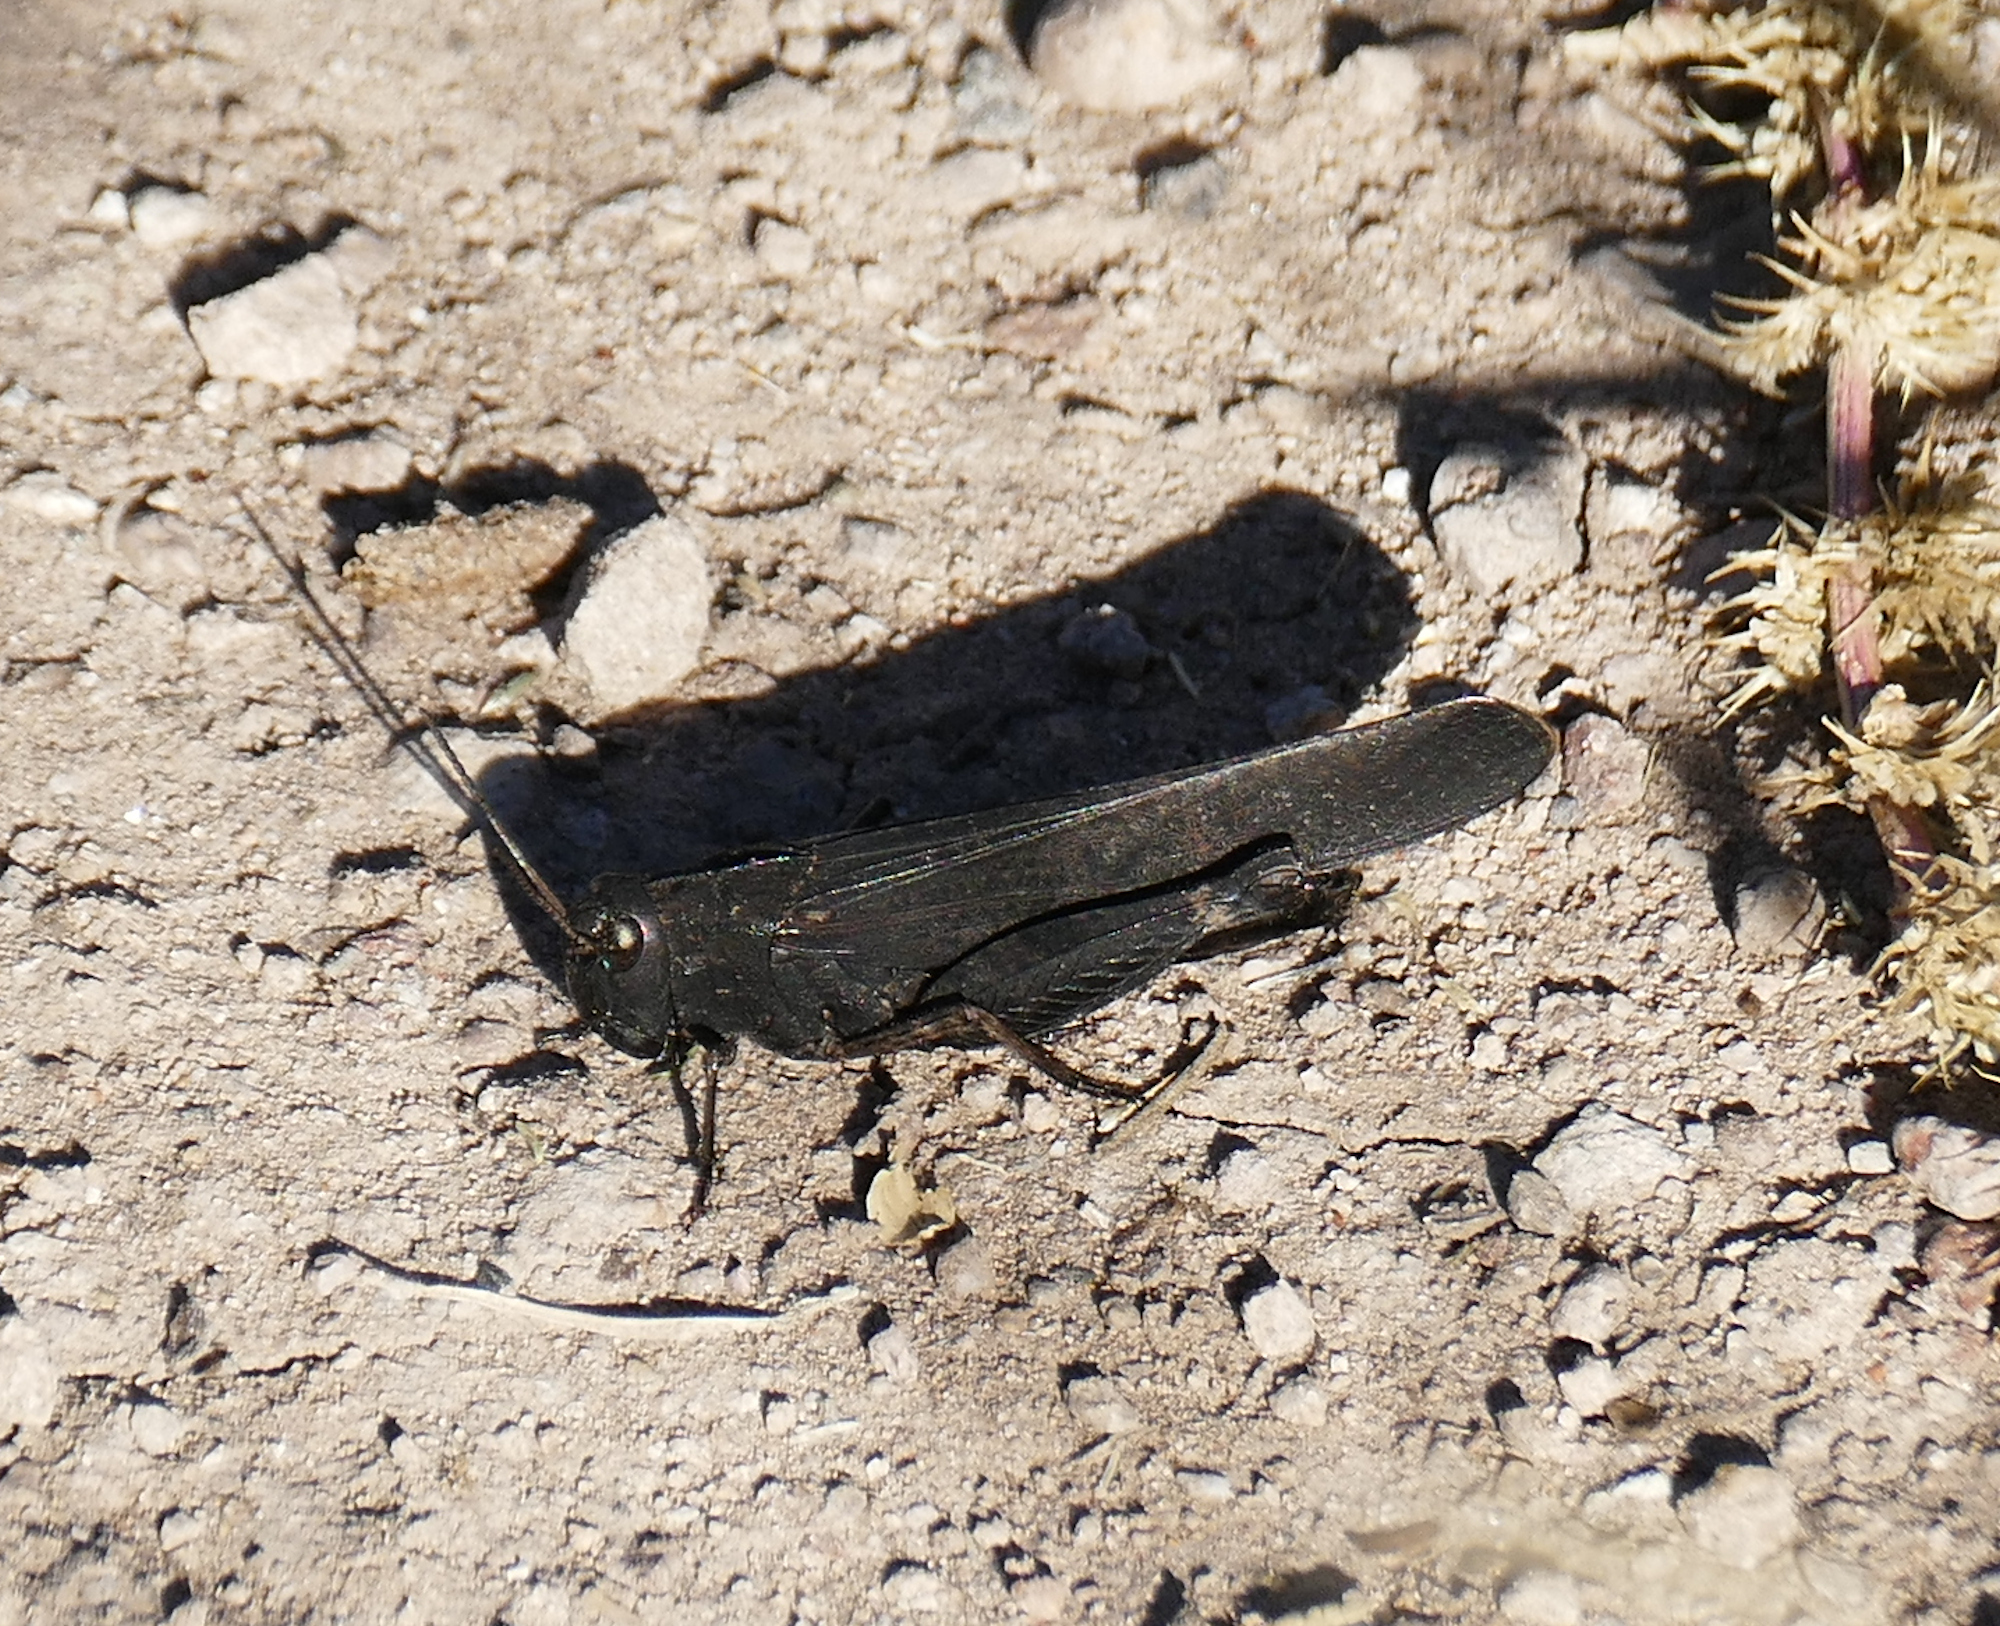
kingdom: Animalia
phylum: Arthropoda
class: Insecta
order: Orthoptera
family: Acrididae
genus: Arphia
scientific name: Arphia pseudo-nietana
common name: Red-winged grasshopper
